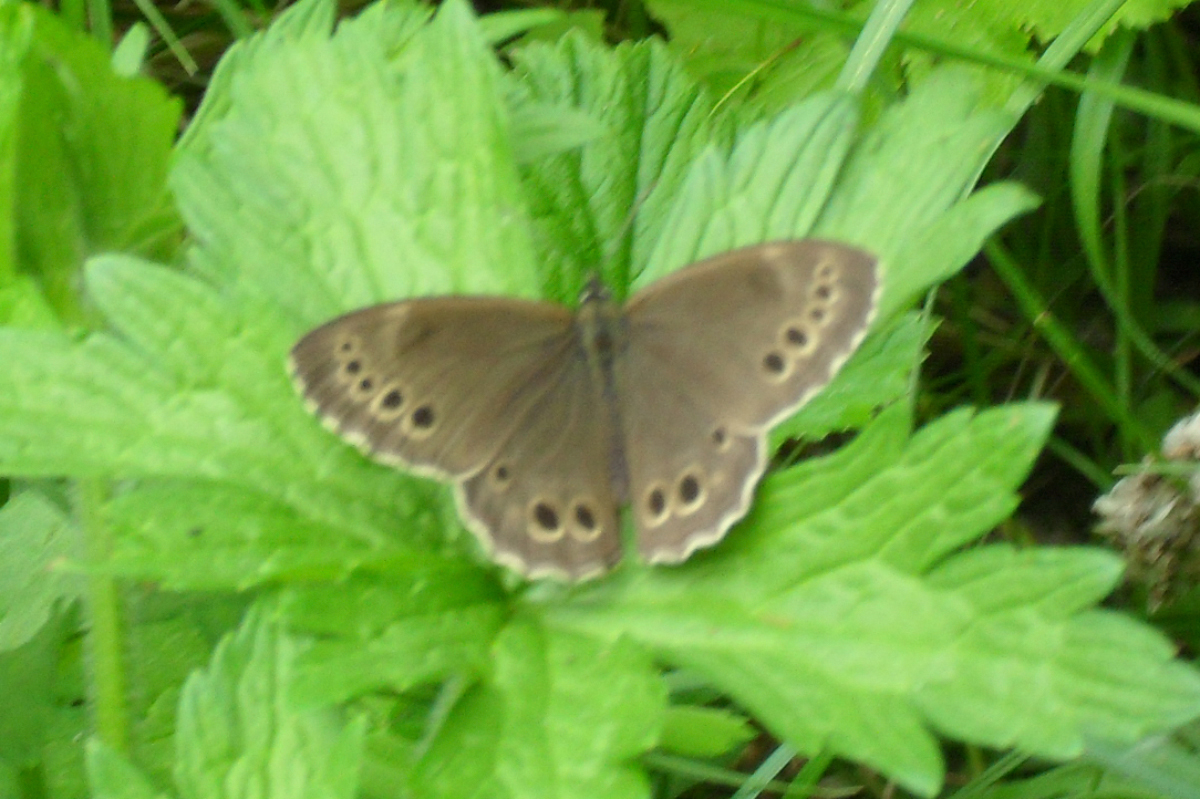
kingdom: Animalia
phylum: Arthropoda
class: Insecta
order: Lepidoptera
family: Nymphalidae
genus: Pararge
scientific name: Pararge Lopinga achine
